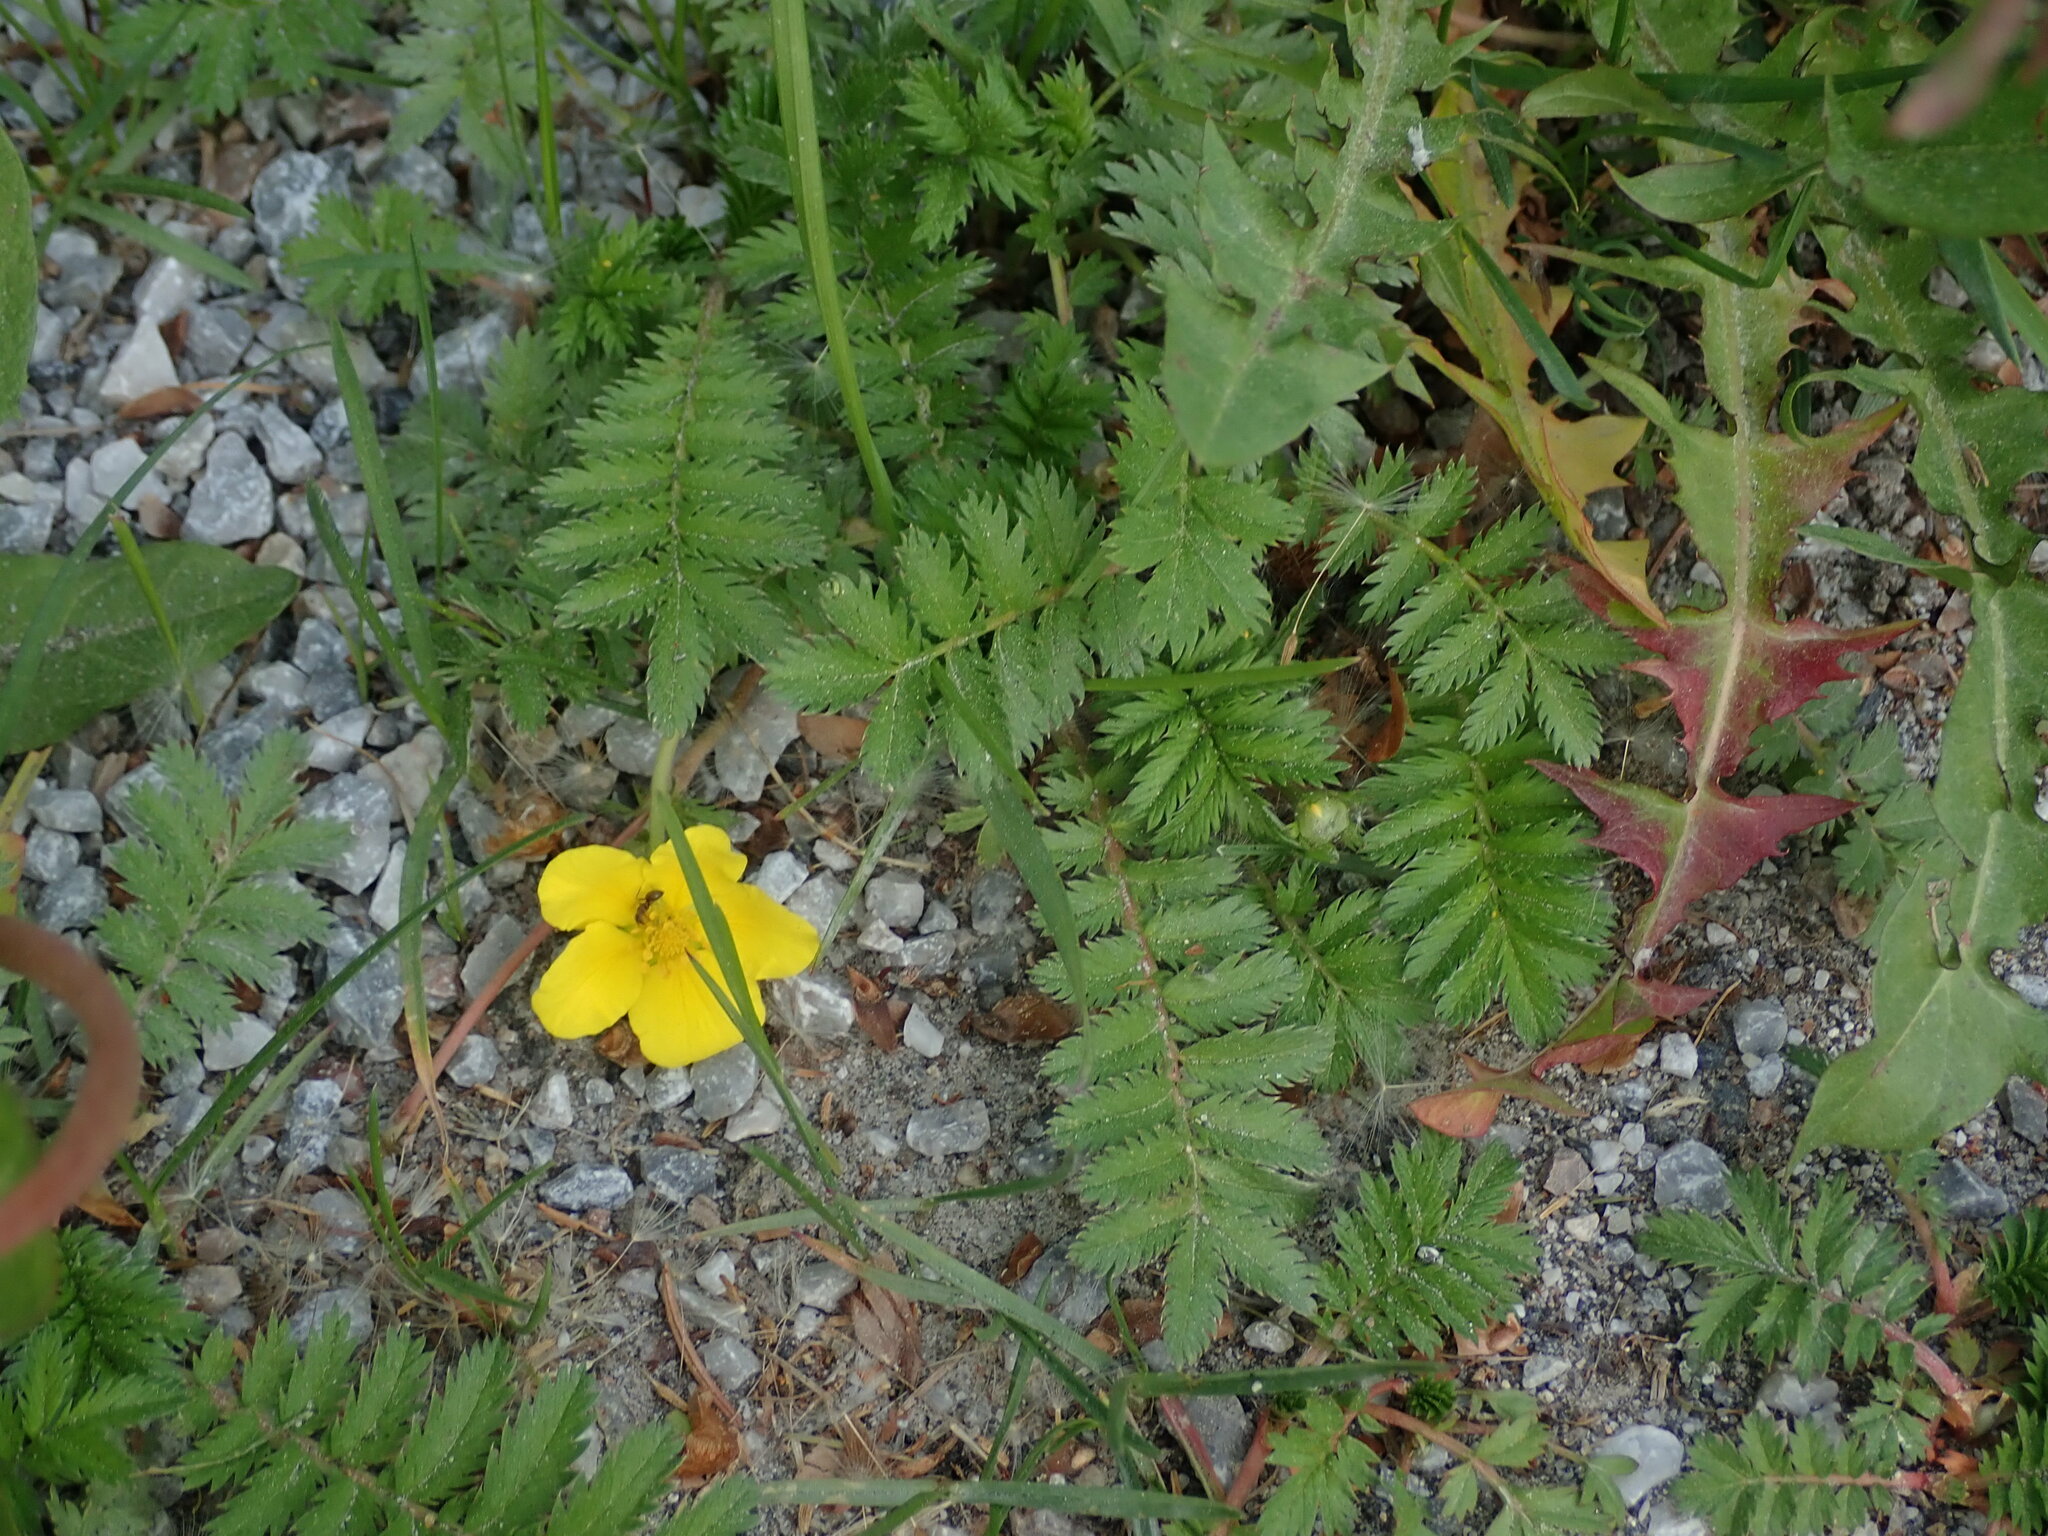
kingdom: Plantae
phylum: Tracheophyta
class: Magnoliopsida
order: Rosales
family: Rosaceae
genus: Argentina
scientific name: Argentina anserina
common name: Common silverweed
